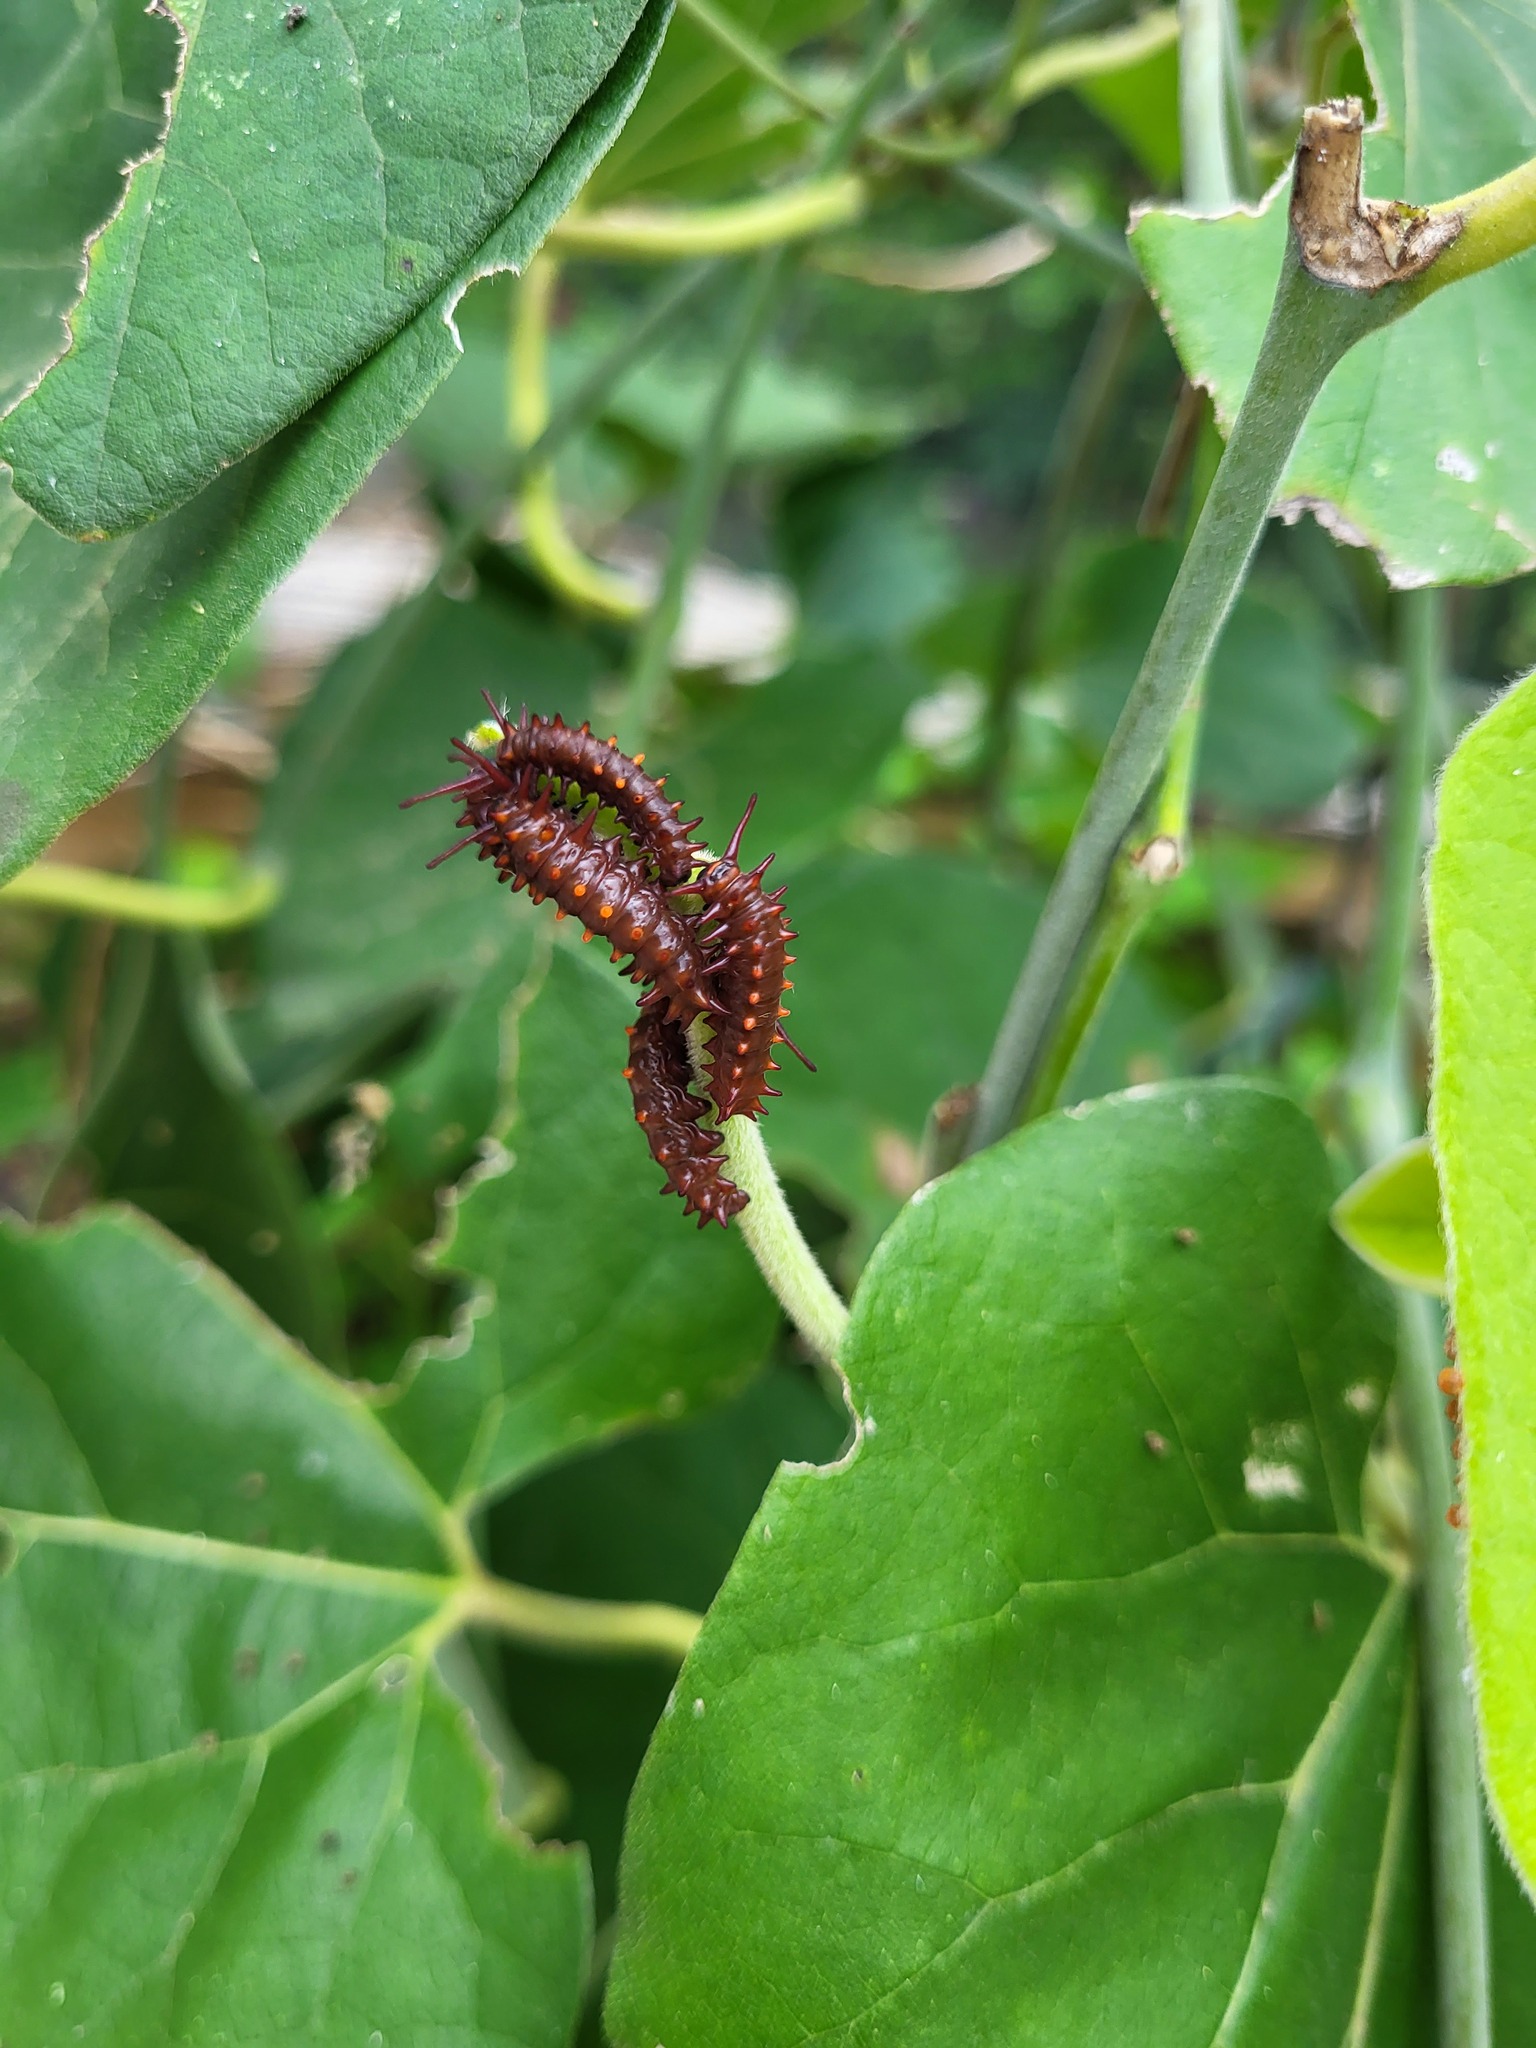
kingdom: Animalia
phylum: Arthropoda
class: Insecta
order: Lepidoptera
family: Papilionidae
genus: Battus
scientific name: Battus philenor
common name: Pipevine swallowtail
